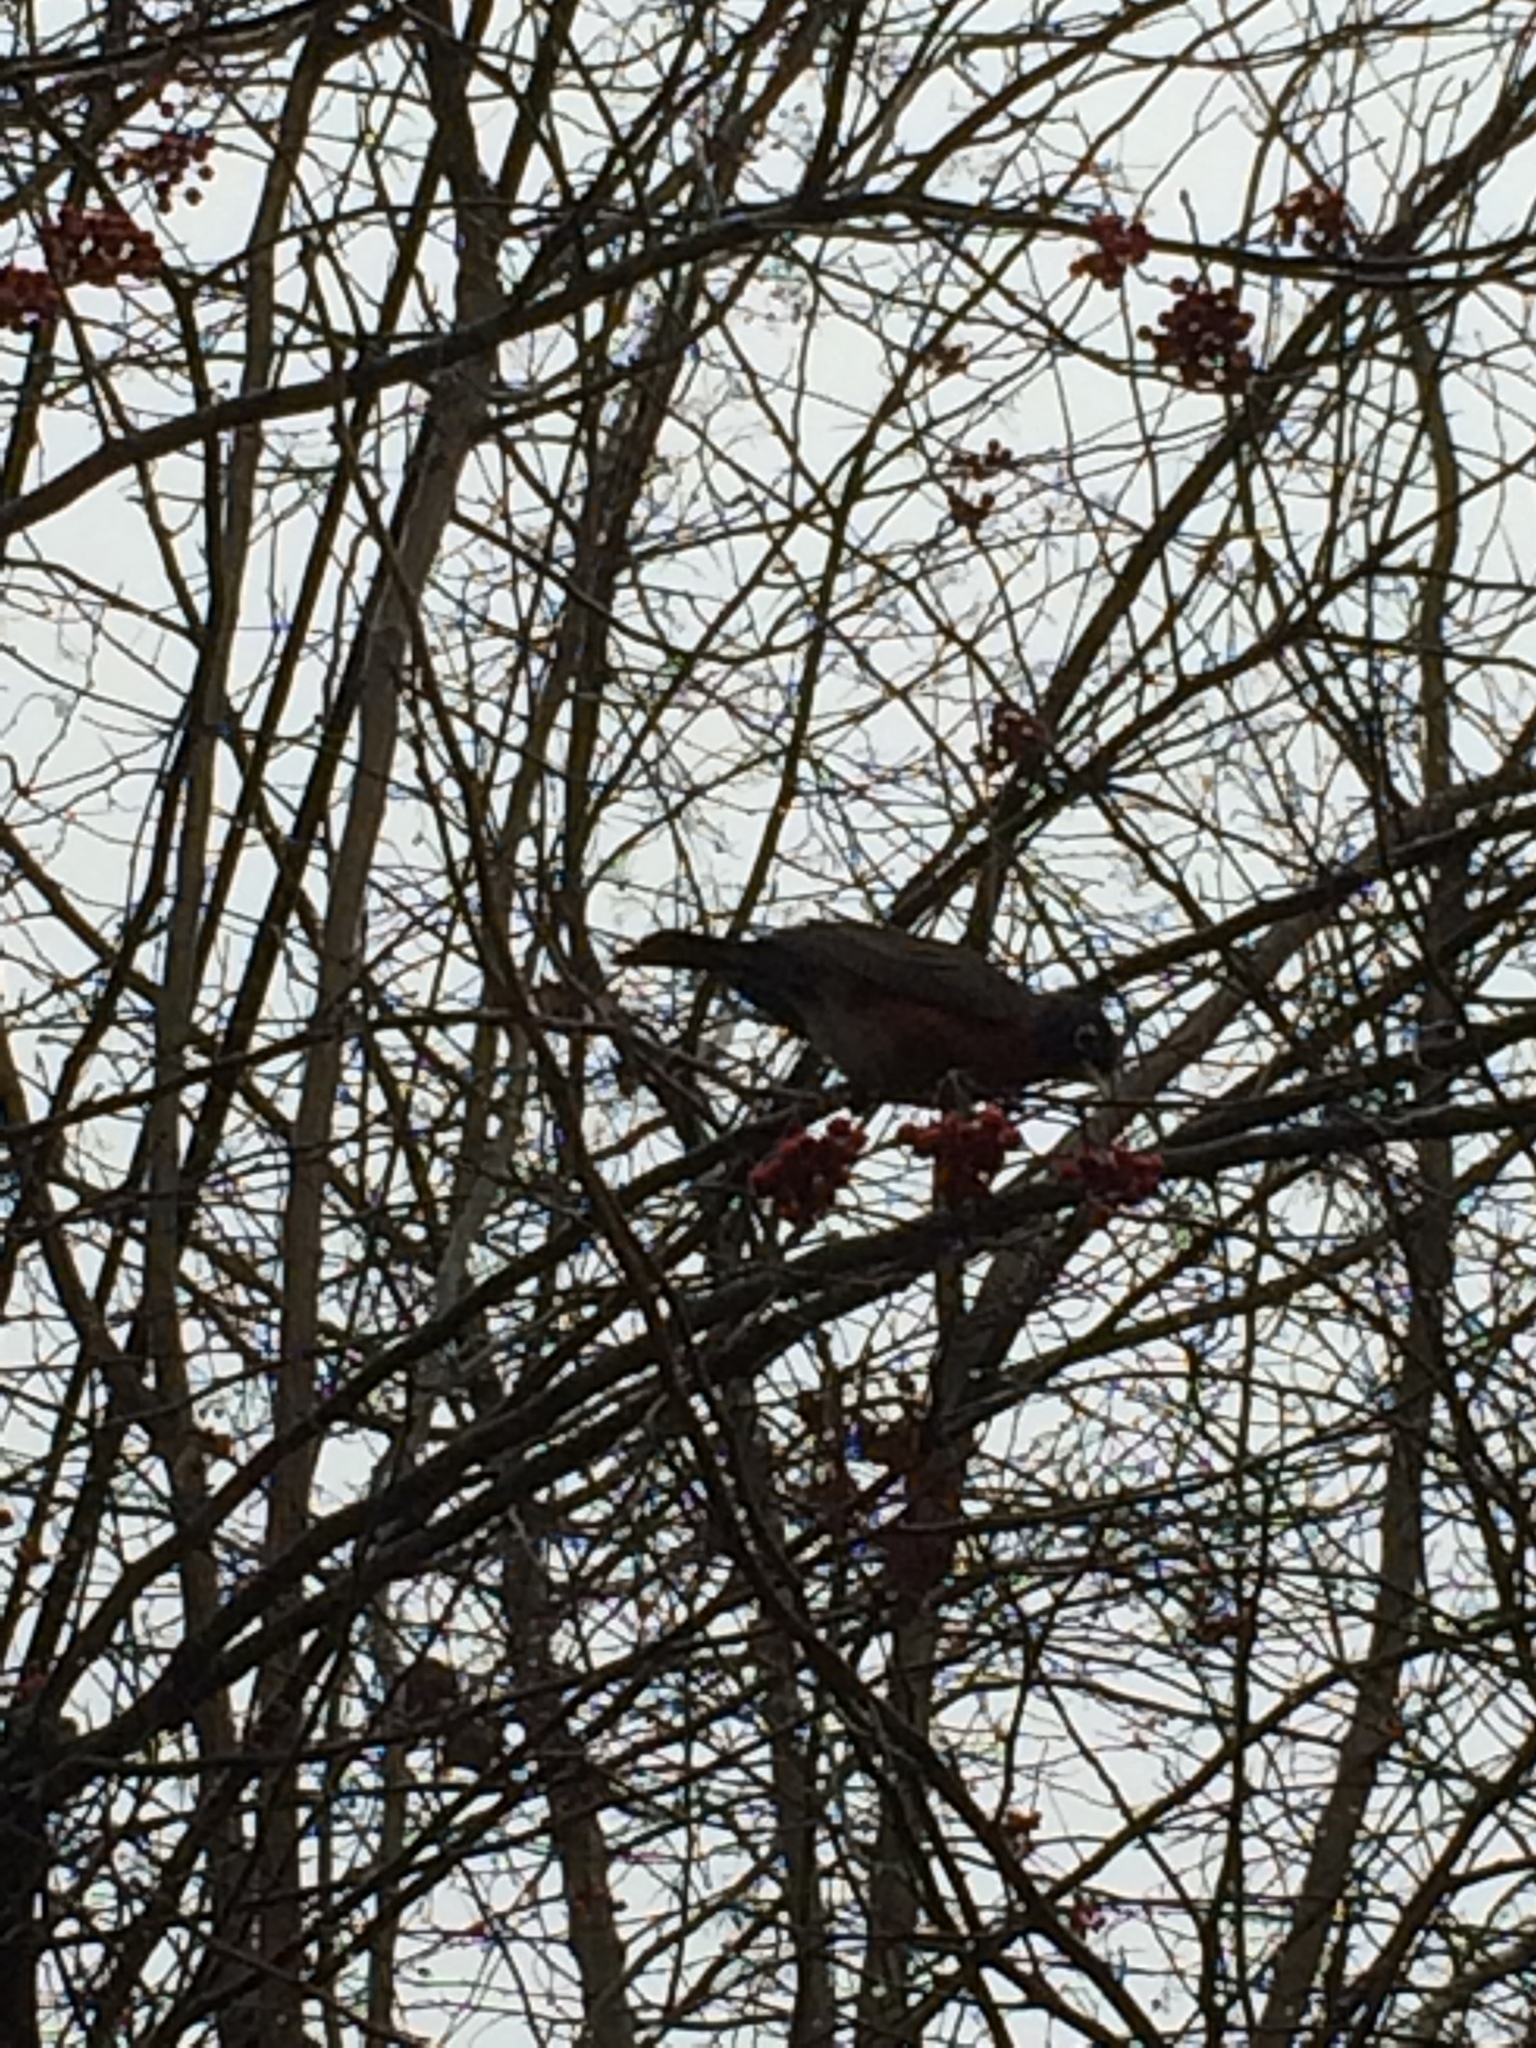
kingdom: Animalia
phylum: Chordata
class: Aves
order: Passeriformes
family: Turdidae
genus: Turdus
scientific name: Turdus migratorius
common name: American robin
